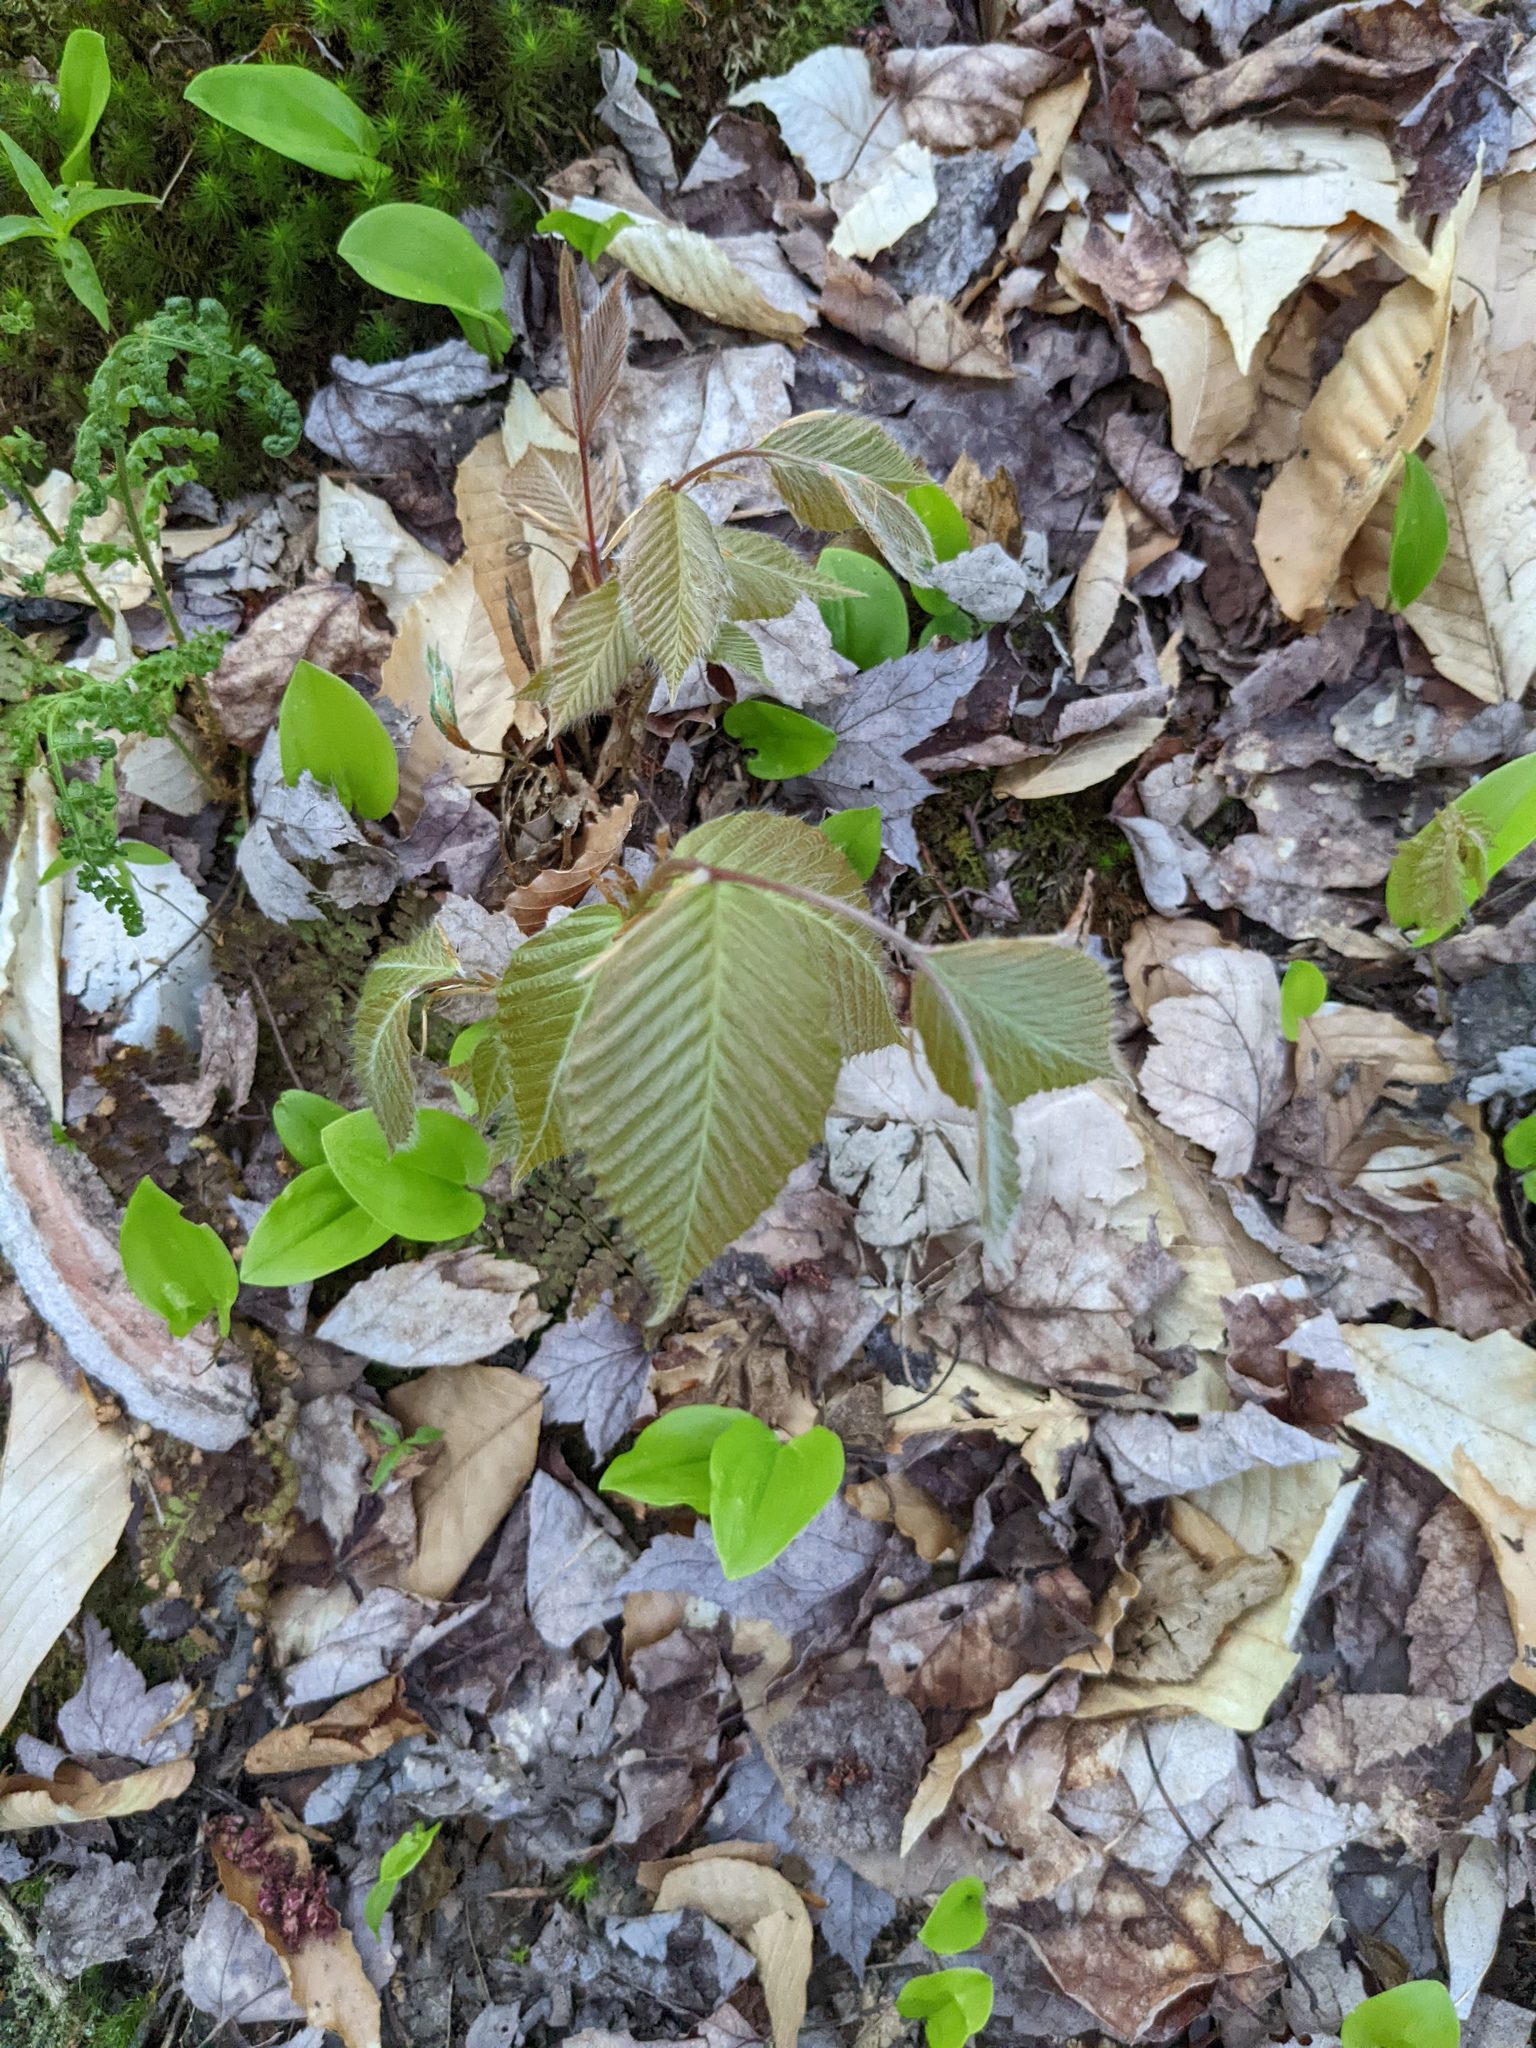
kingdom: Plantae
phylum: Tracheophyta
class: Magnoliopsida
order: Fagales
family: Fagaceae
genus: Fagus
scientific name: Fagus grandifolia
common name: American beech
